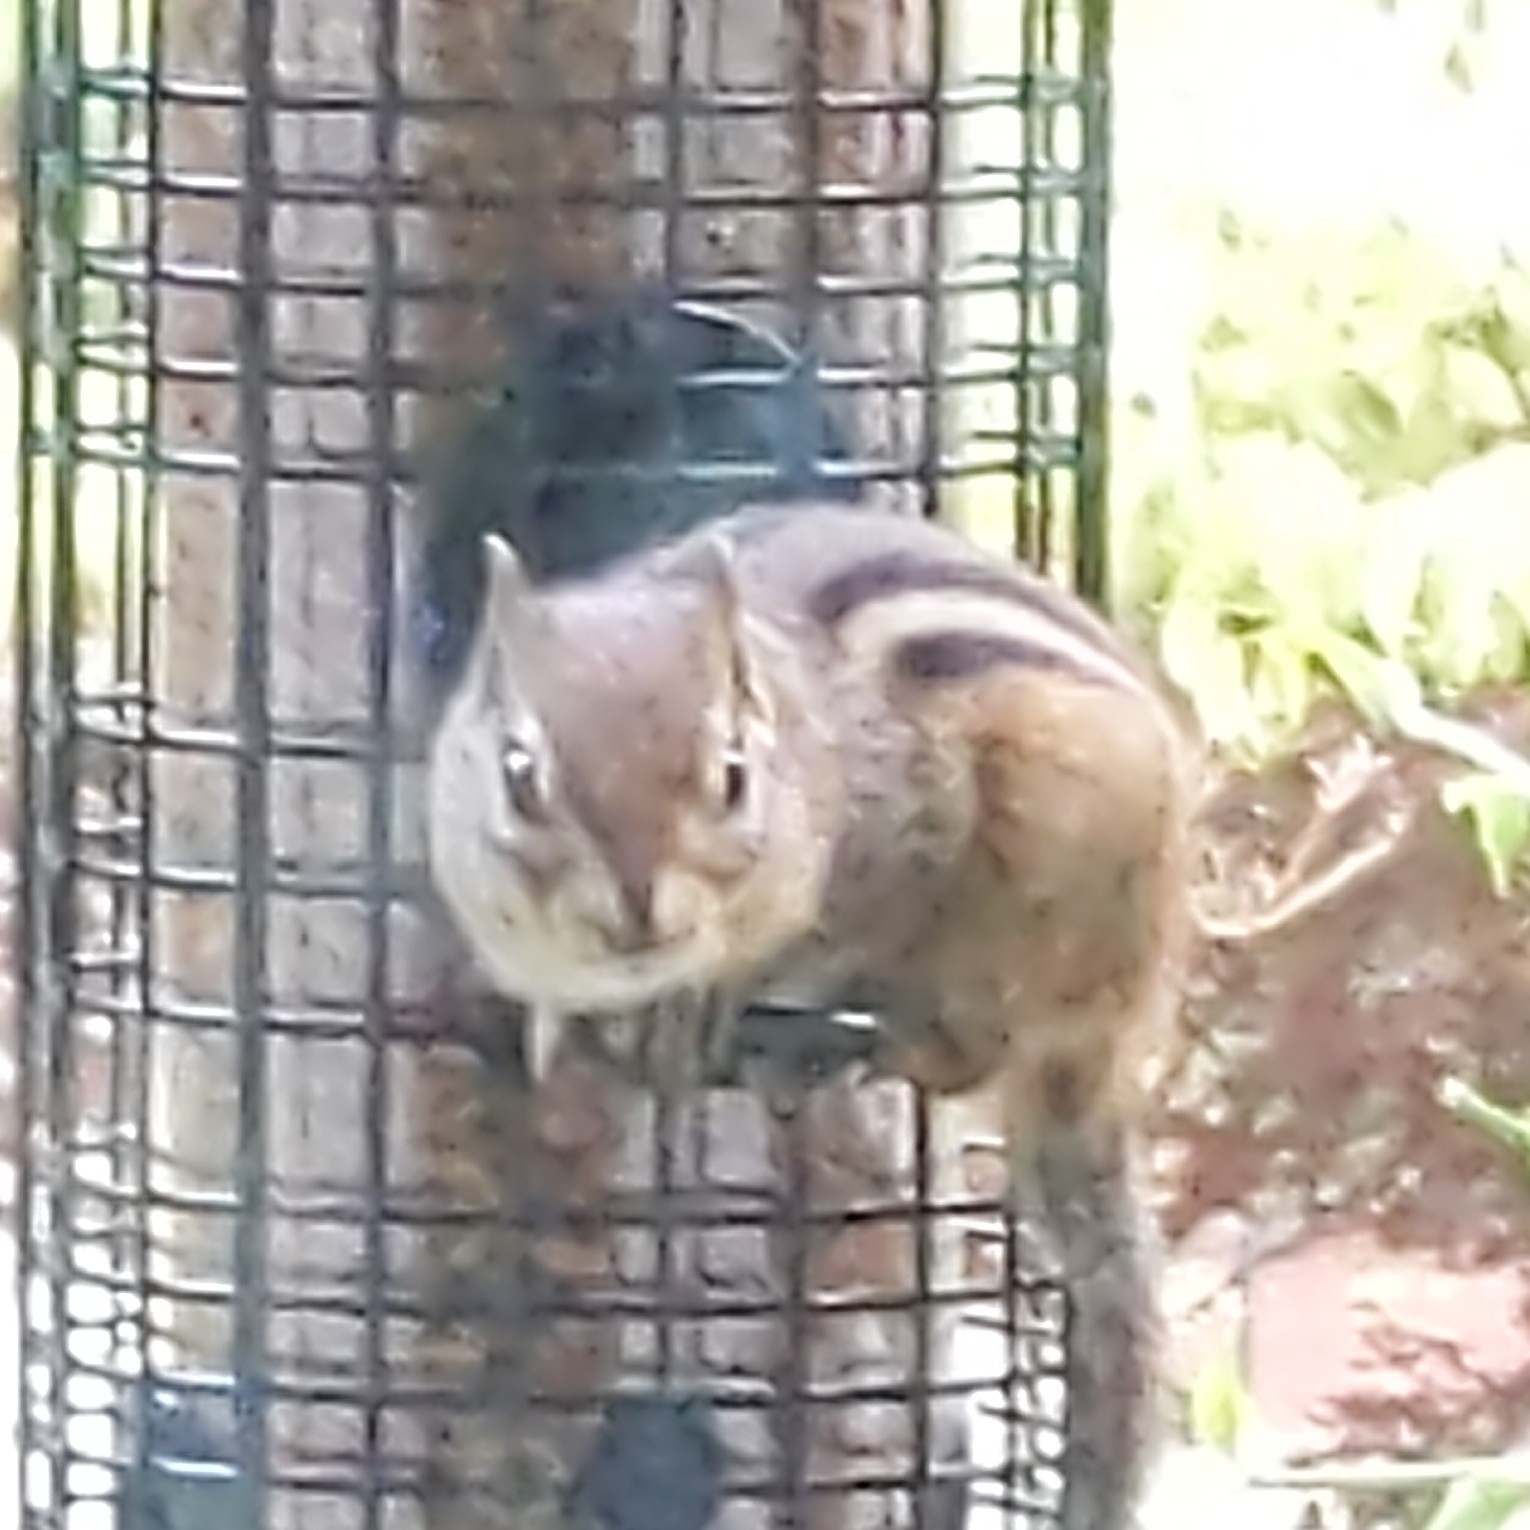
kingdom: Animalia
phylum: Chordata
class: Mammalia
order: Rodentia
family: Sciuridae
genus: Tamias
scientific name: Tamias striatus
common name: Eastern chipmunk
